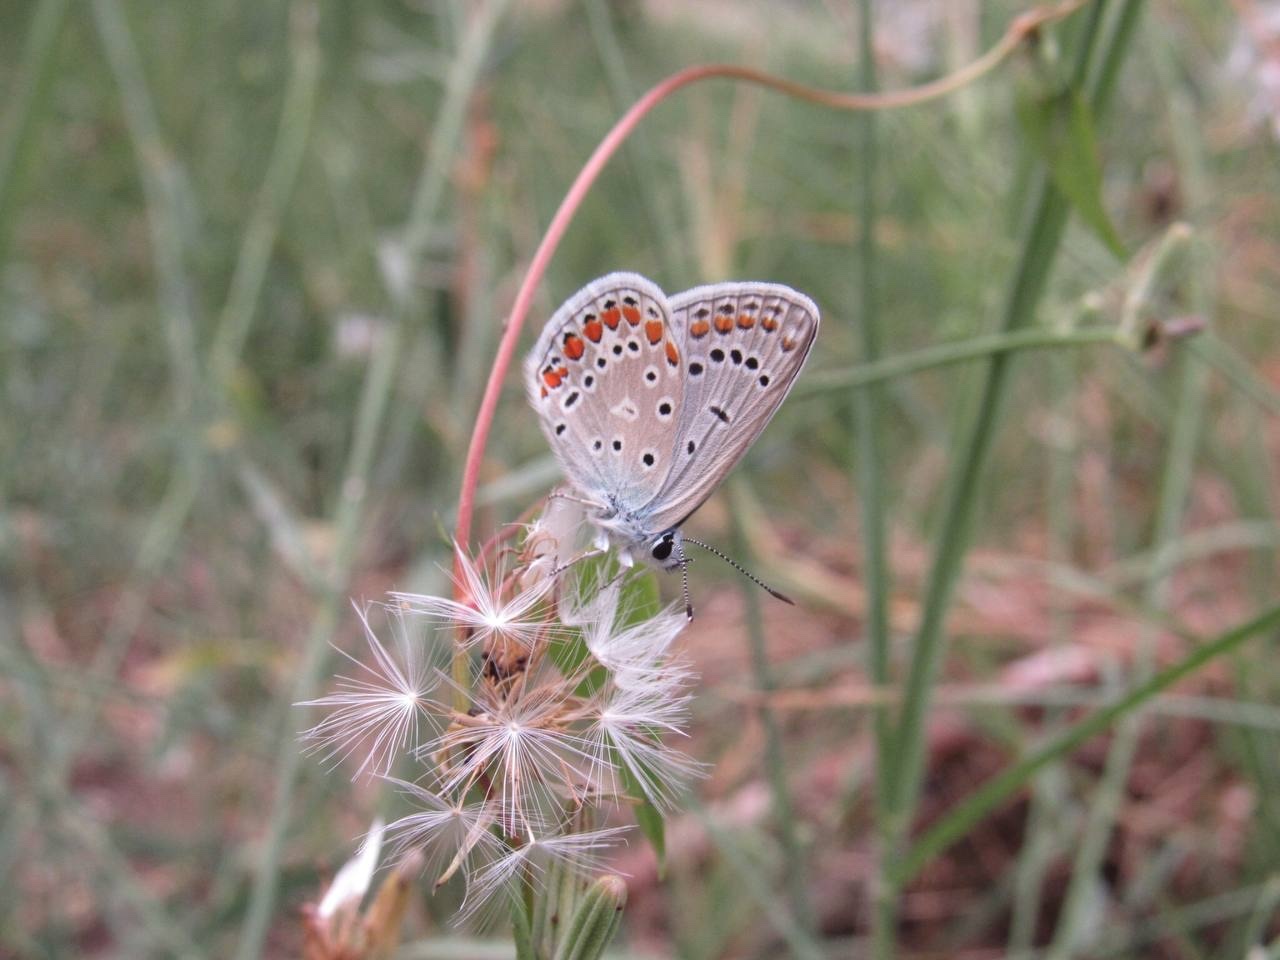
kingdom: Animalia
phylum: Arthropoda
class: Insecta
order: Lepidoptera
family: Lycaenidae
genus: Polyommatus
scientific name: Polyommatus icarus
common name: Common blue
